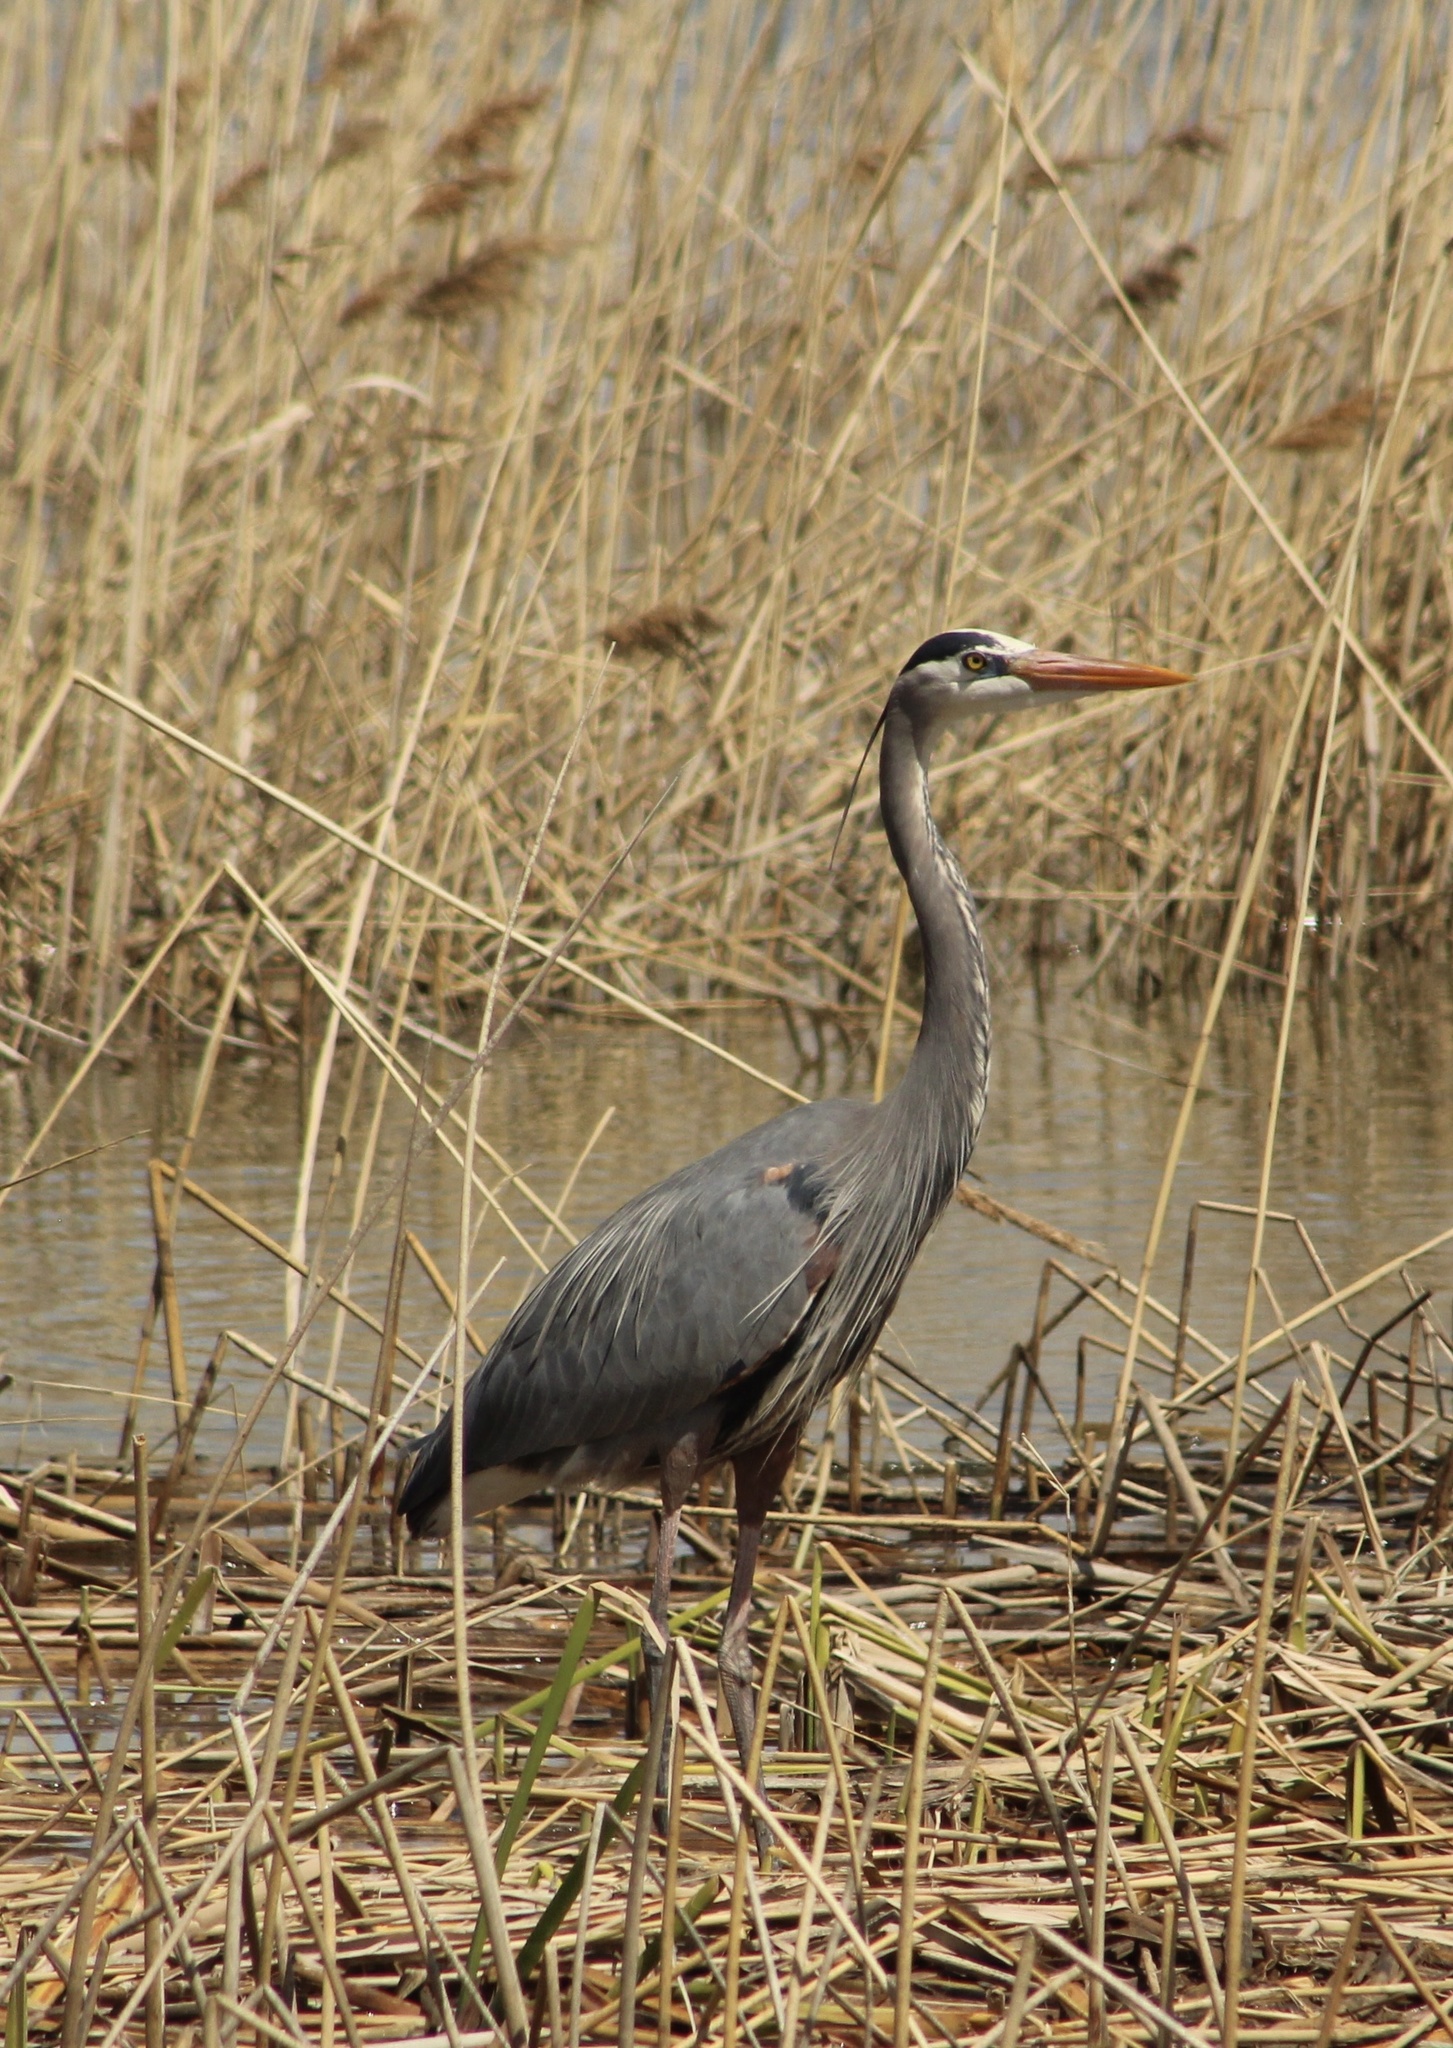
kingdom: Animalia
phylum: Chordata
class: Aves
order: Pelecaniformes
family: Ardeidae
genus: Ardea
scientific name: Ardea herodias
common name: Great blue heron
